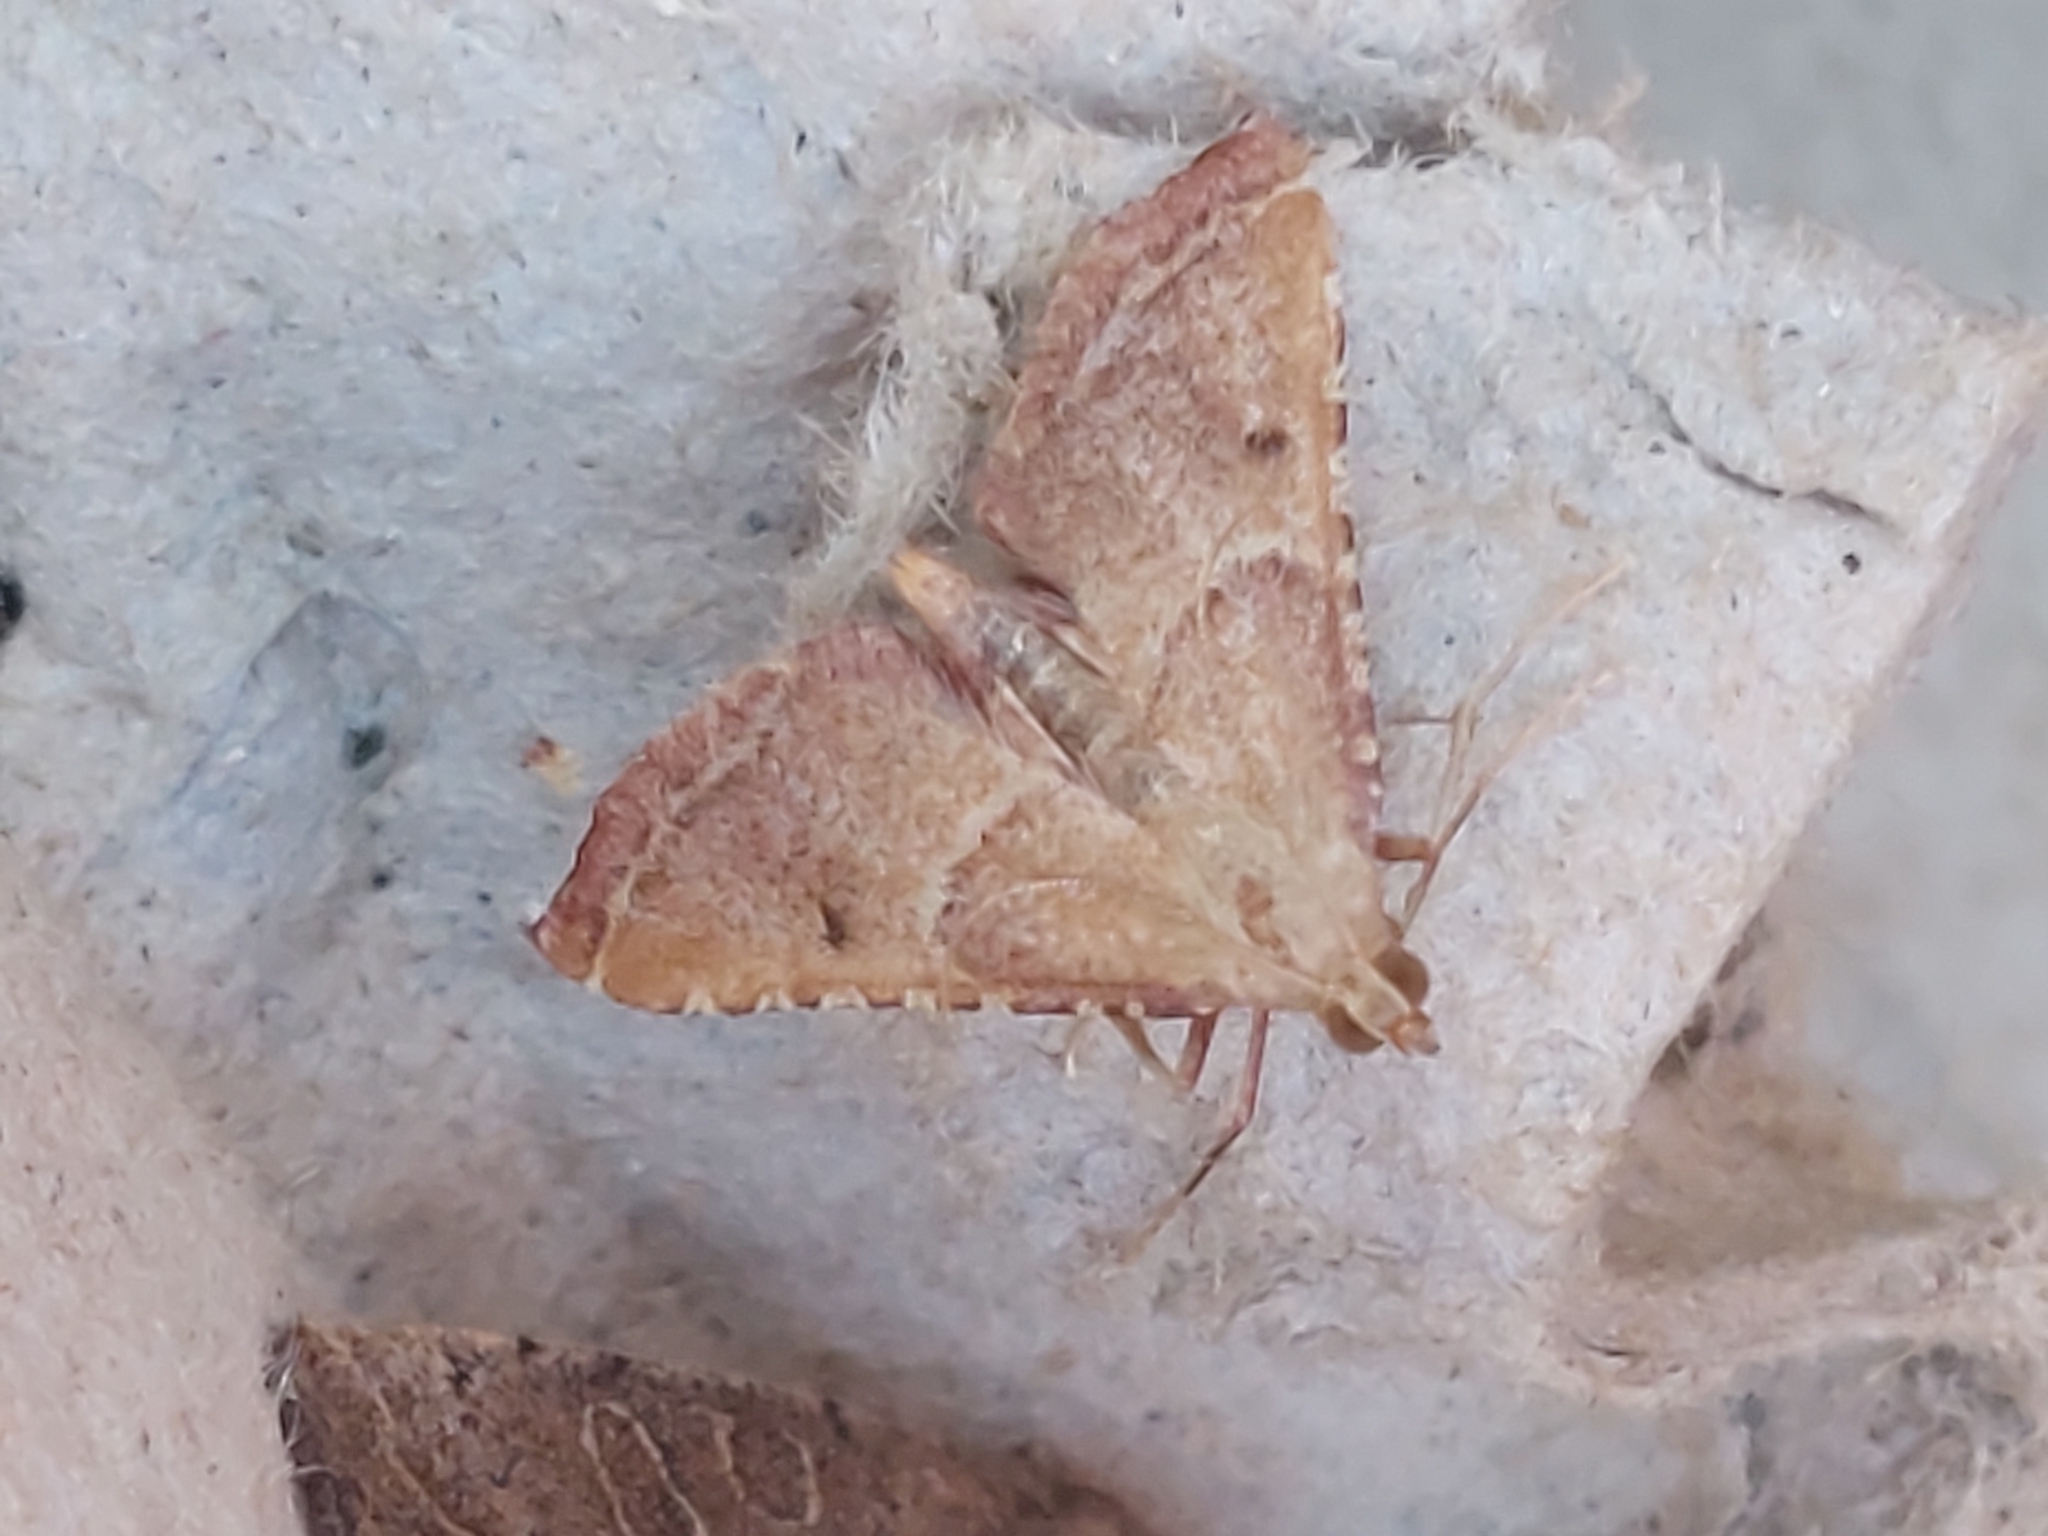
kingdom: Animalia
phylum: Arthropoda
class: Insecta
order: Lepidoptera
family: Pyralidae
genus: Endotricha
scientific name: Endotricha flammealis
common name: Rosy tabby
